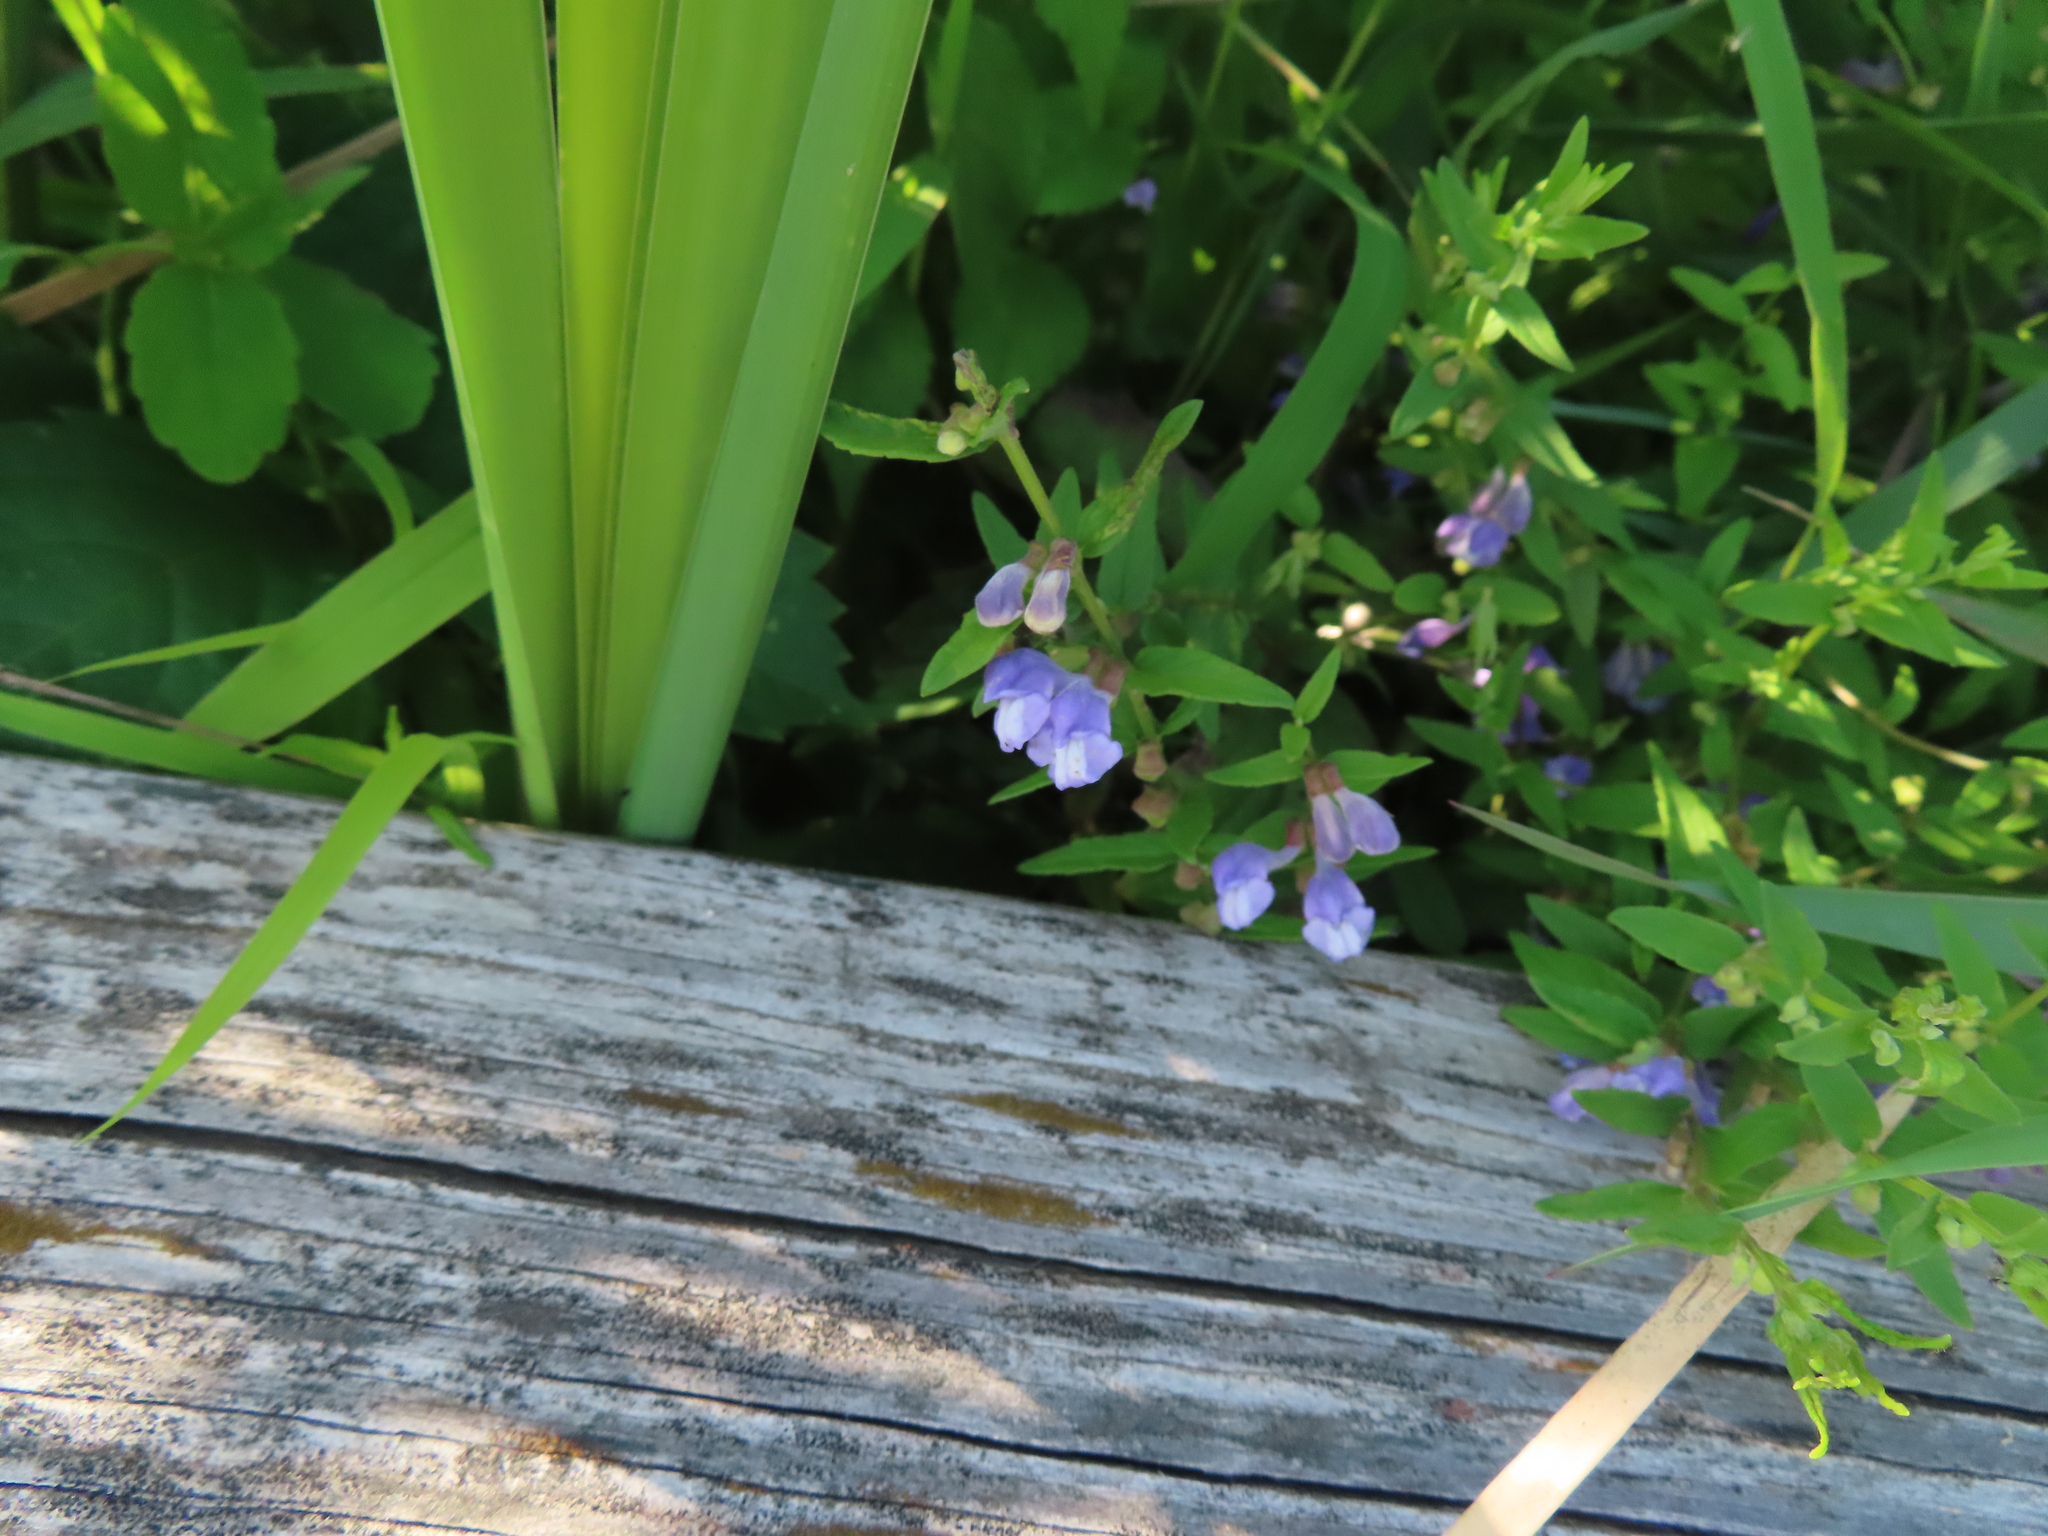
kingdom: Plantae
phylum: Tracheophyta
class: Magnoliopsida
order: Lamiales
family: Lamiaceae
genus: Scutellaria
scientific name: Scutellaria galericulata
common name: Skullcap
